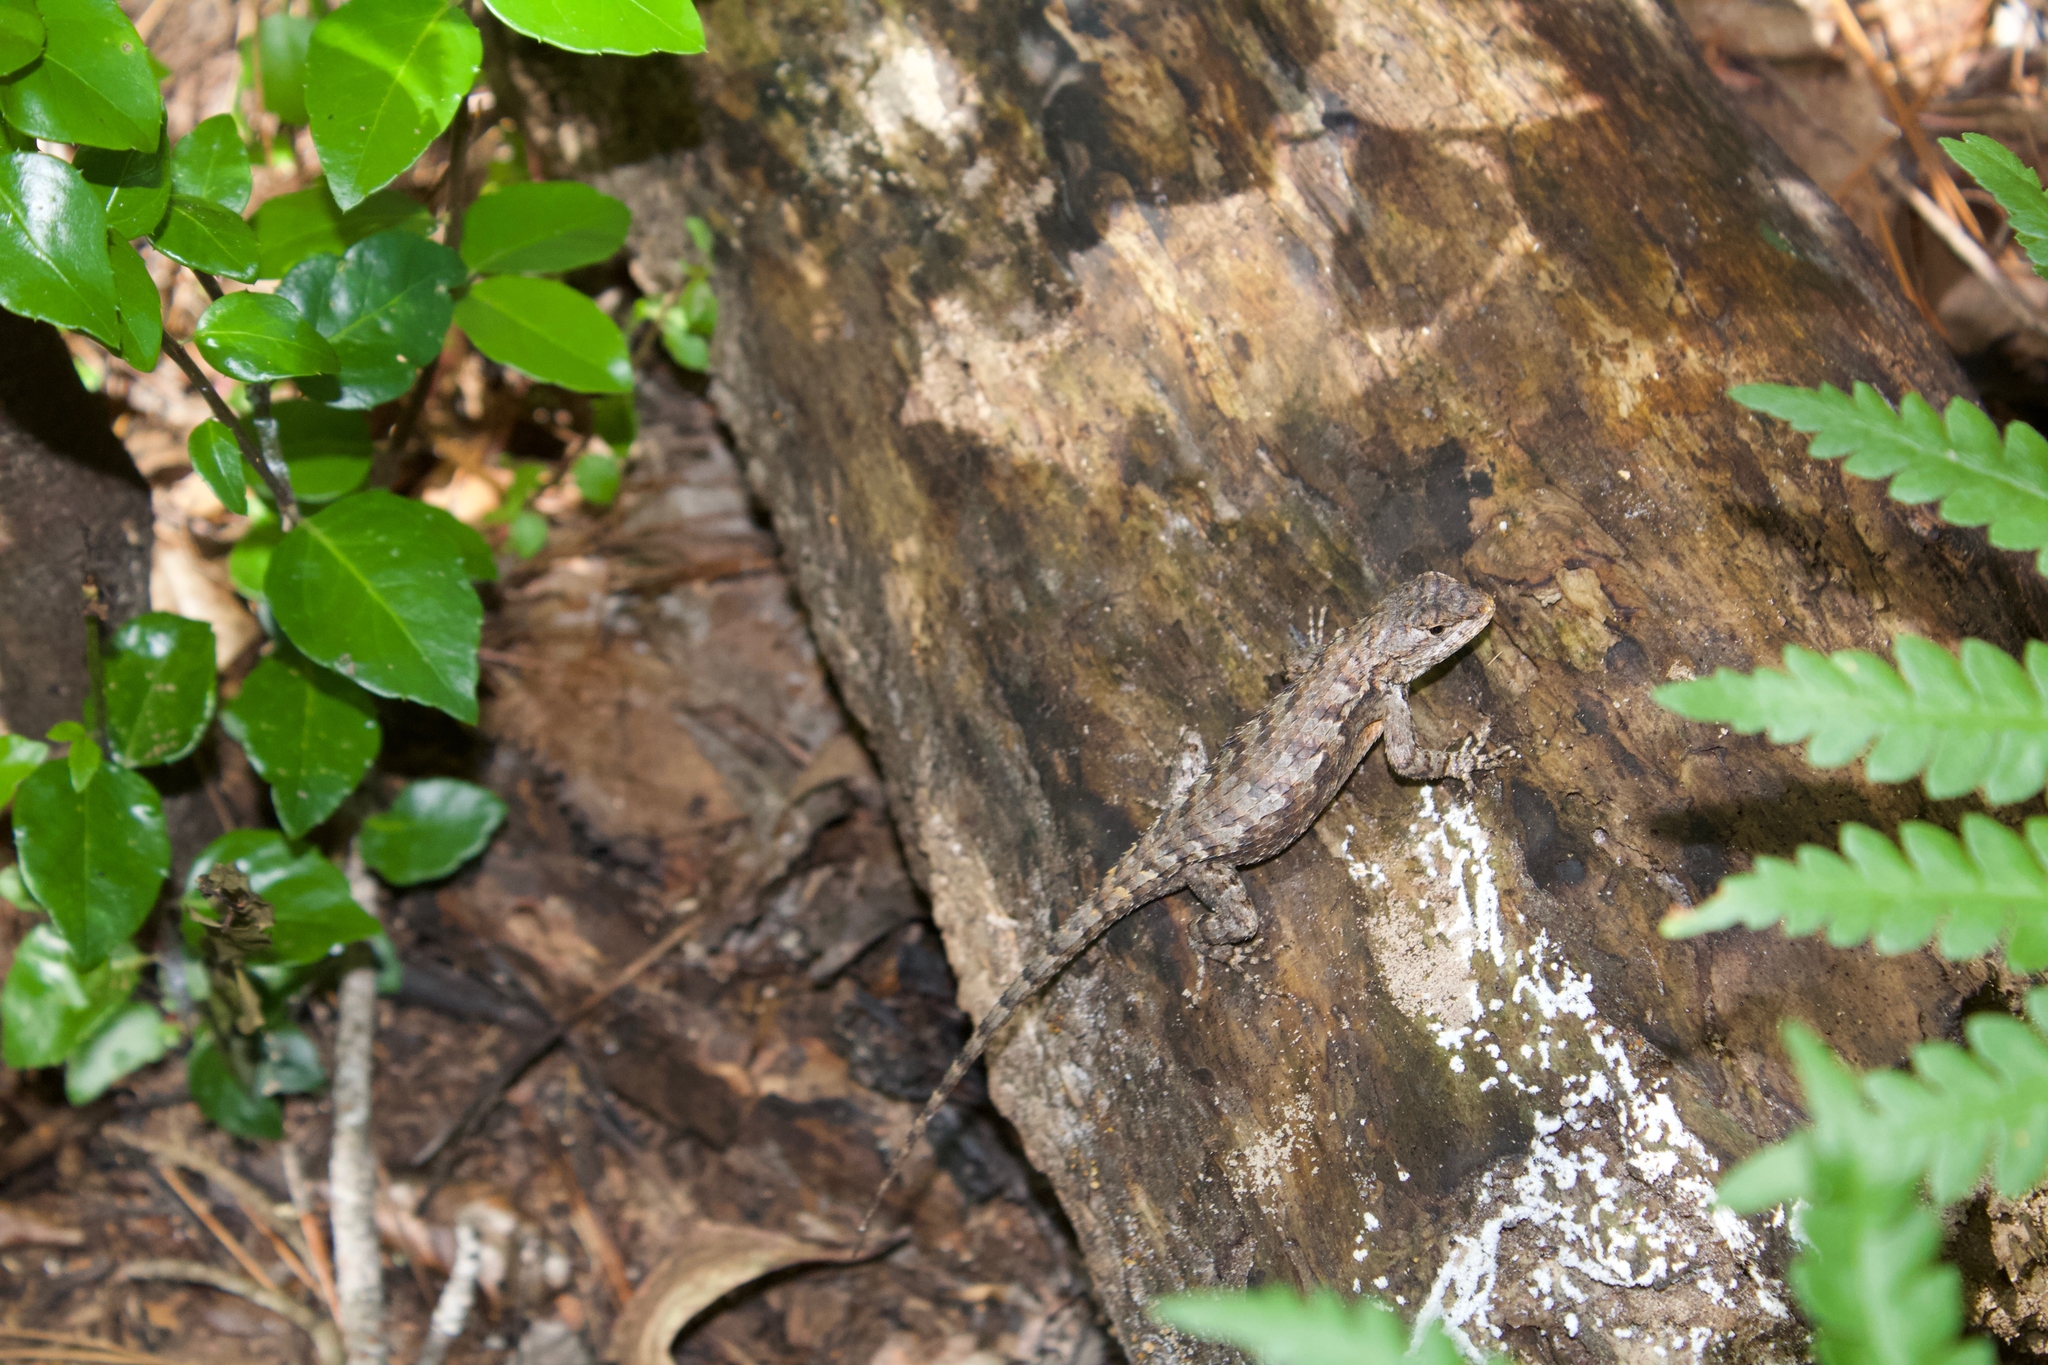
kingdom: Animalia
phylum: Chordata
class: Squamata
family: Phrynosomatidae
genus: Sceloporus
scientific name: Sceloporus consobrinus
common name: Southern prairie lizard
